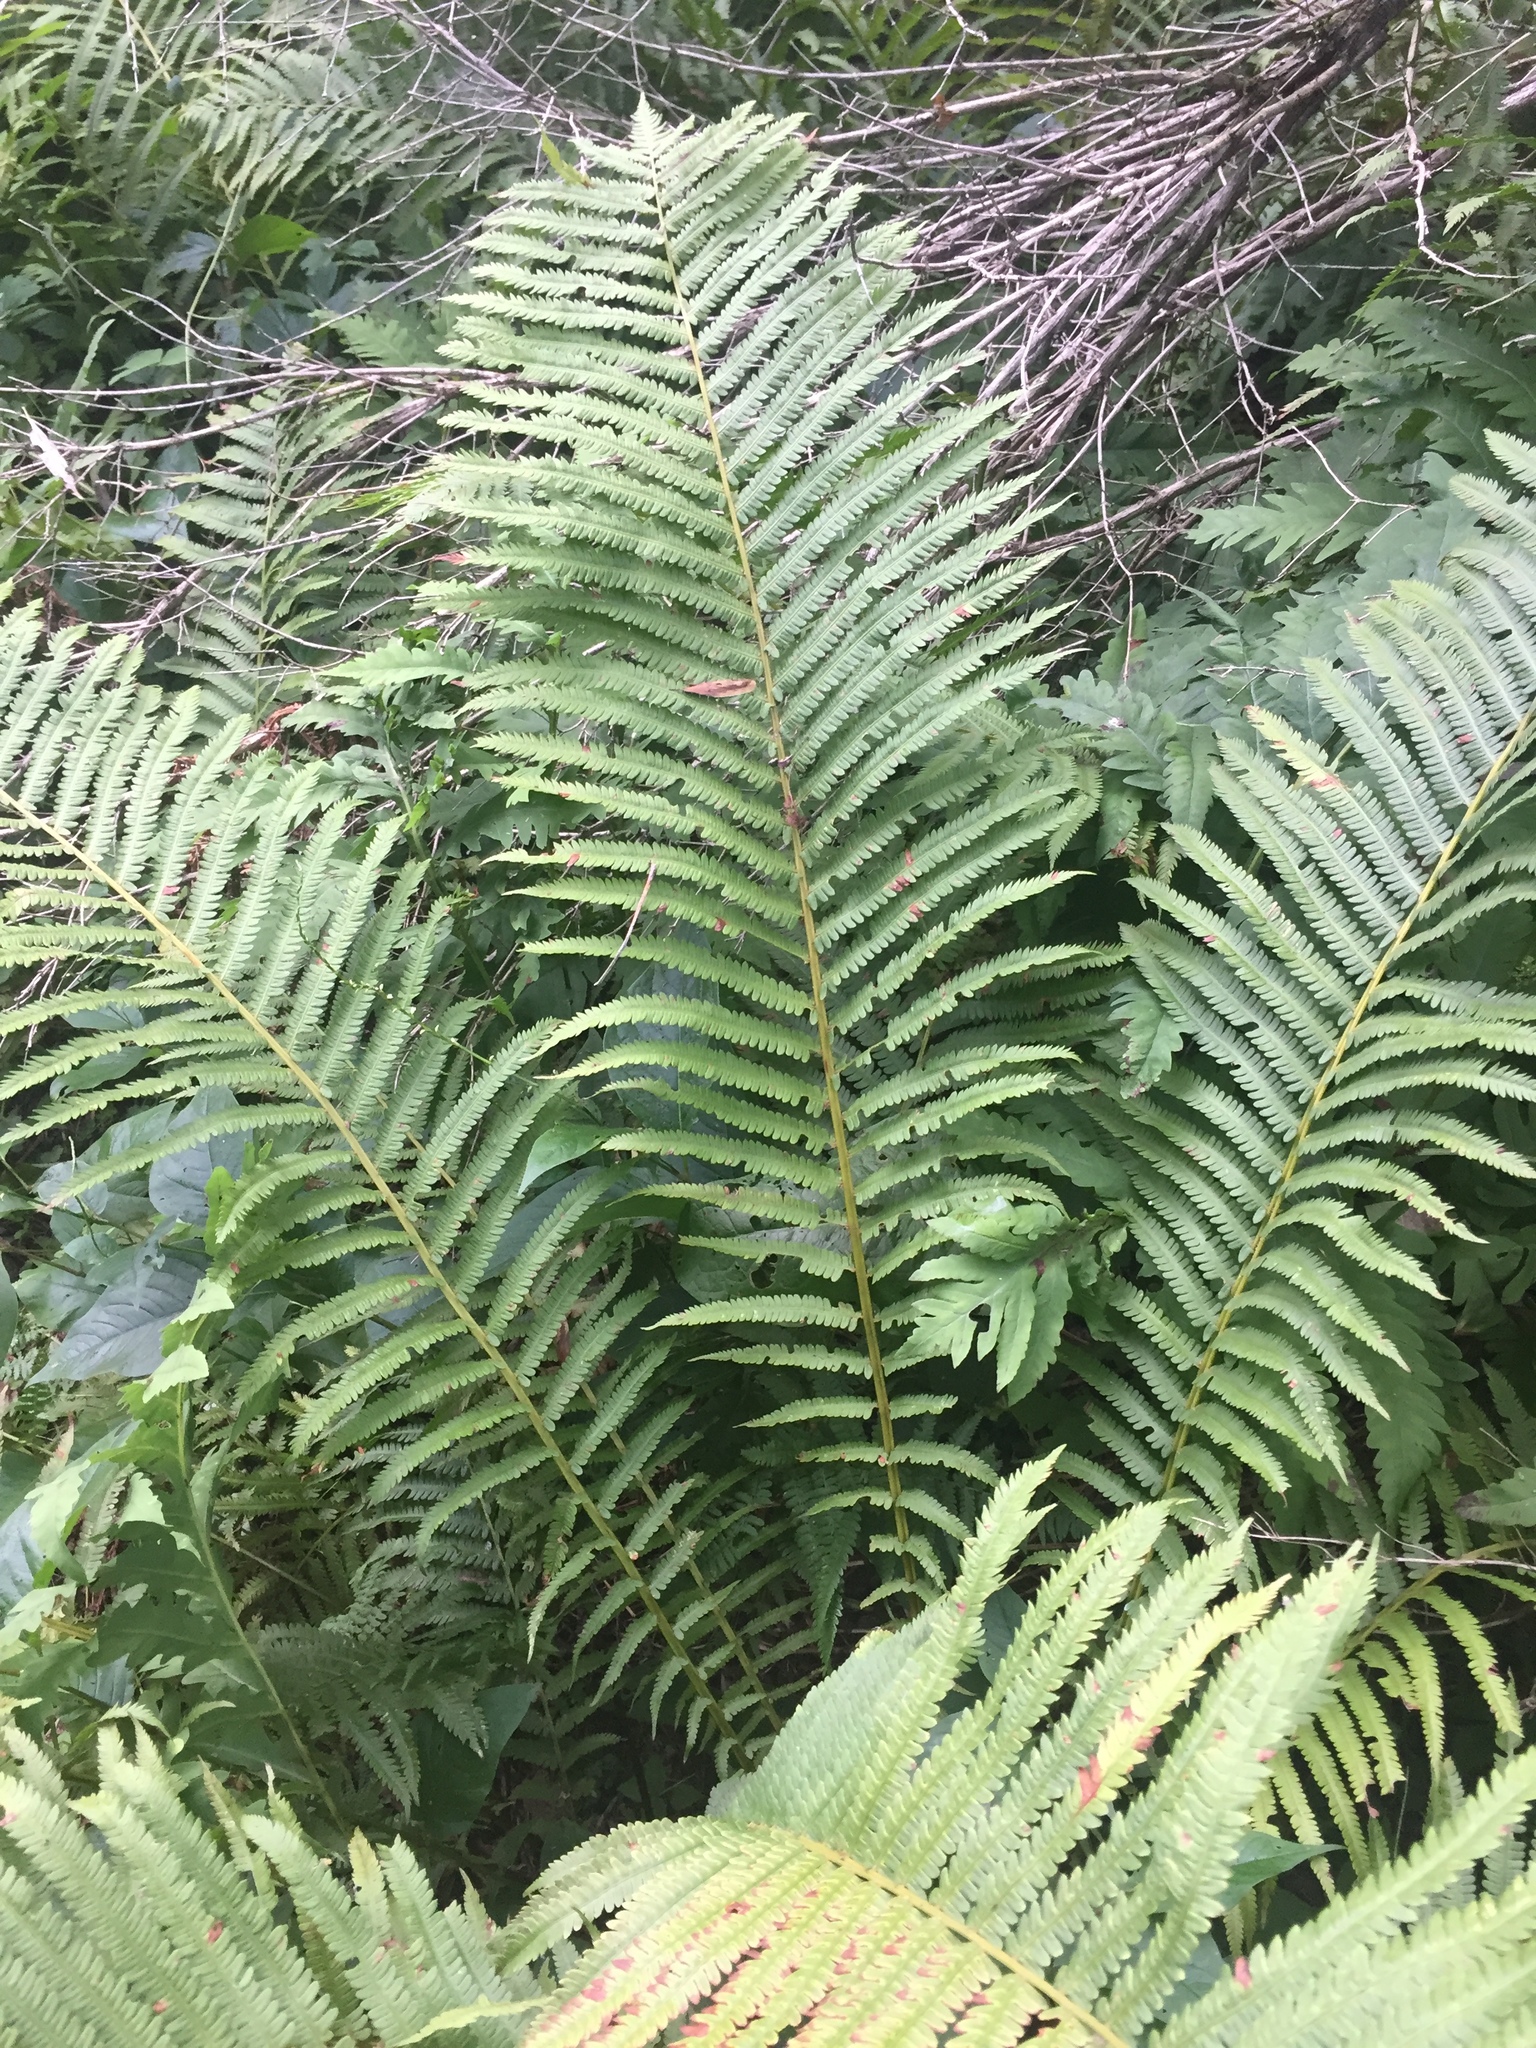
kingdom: Plantae
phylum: Tracheophyta
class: Polypodiopsida
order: Polypodiales
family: Onocleaceae
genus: Matteuccia
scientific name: Matteuccia struthiopteris
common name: Ostrich fern
